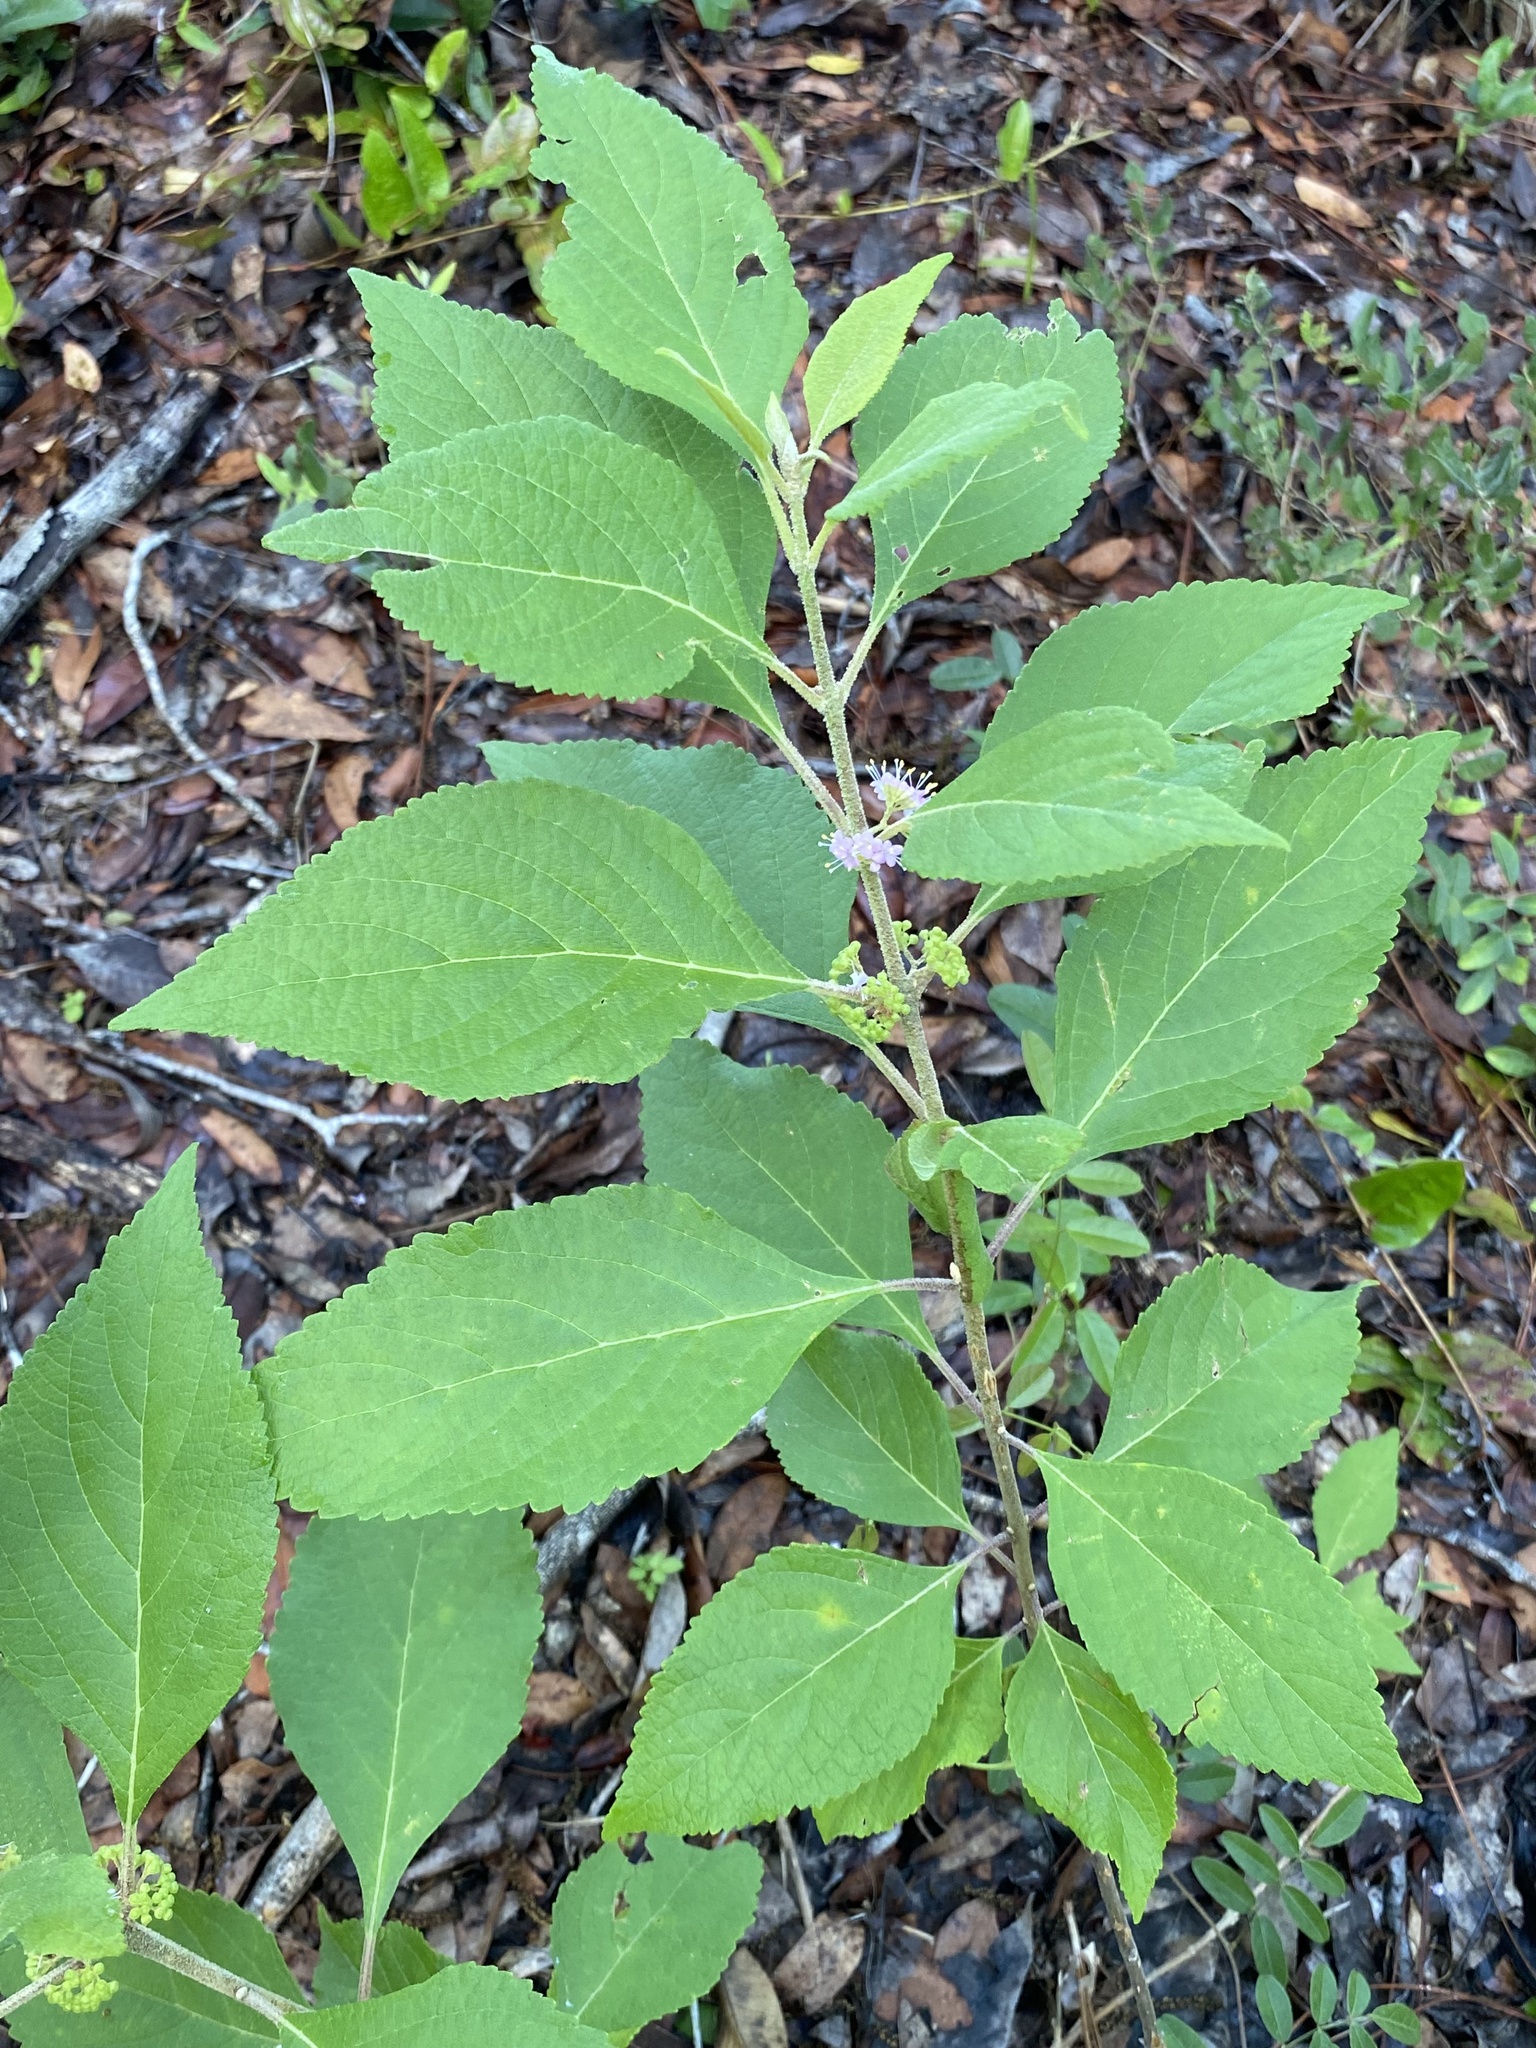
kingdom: Plantae
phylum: Tracheophyta
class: Magnoliopsida
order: Lamiales
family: Lamiaceae
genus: Callicarpa
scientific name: Callicarpa americana
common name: American beautyberry
